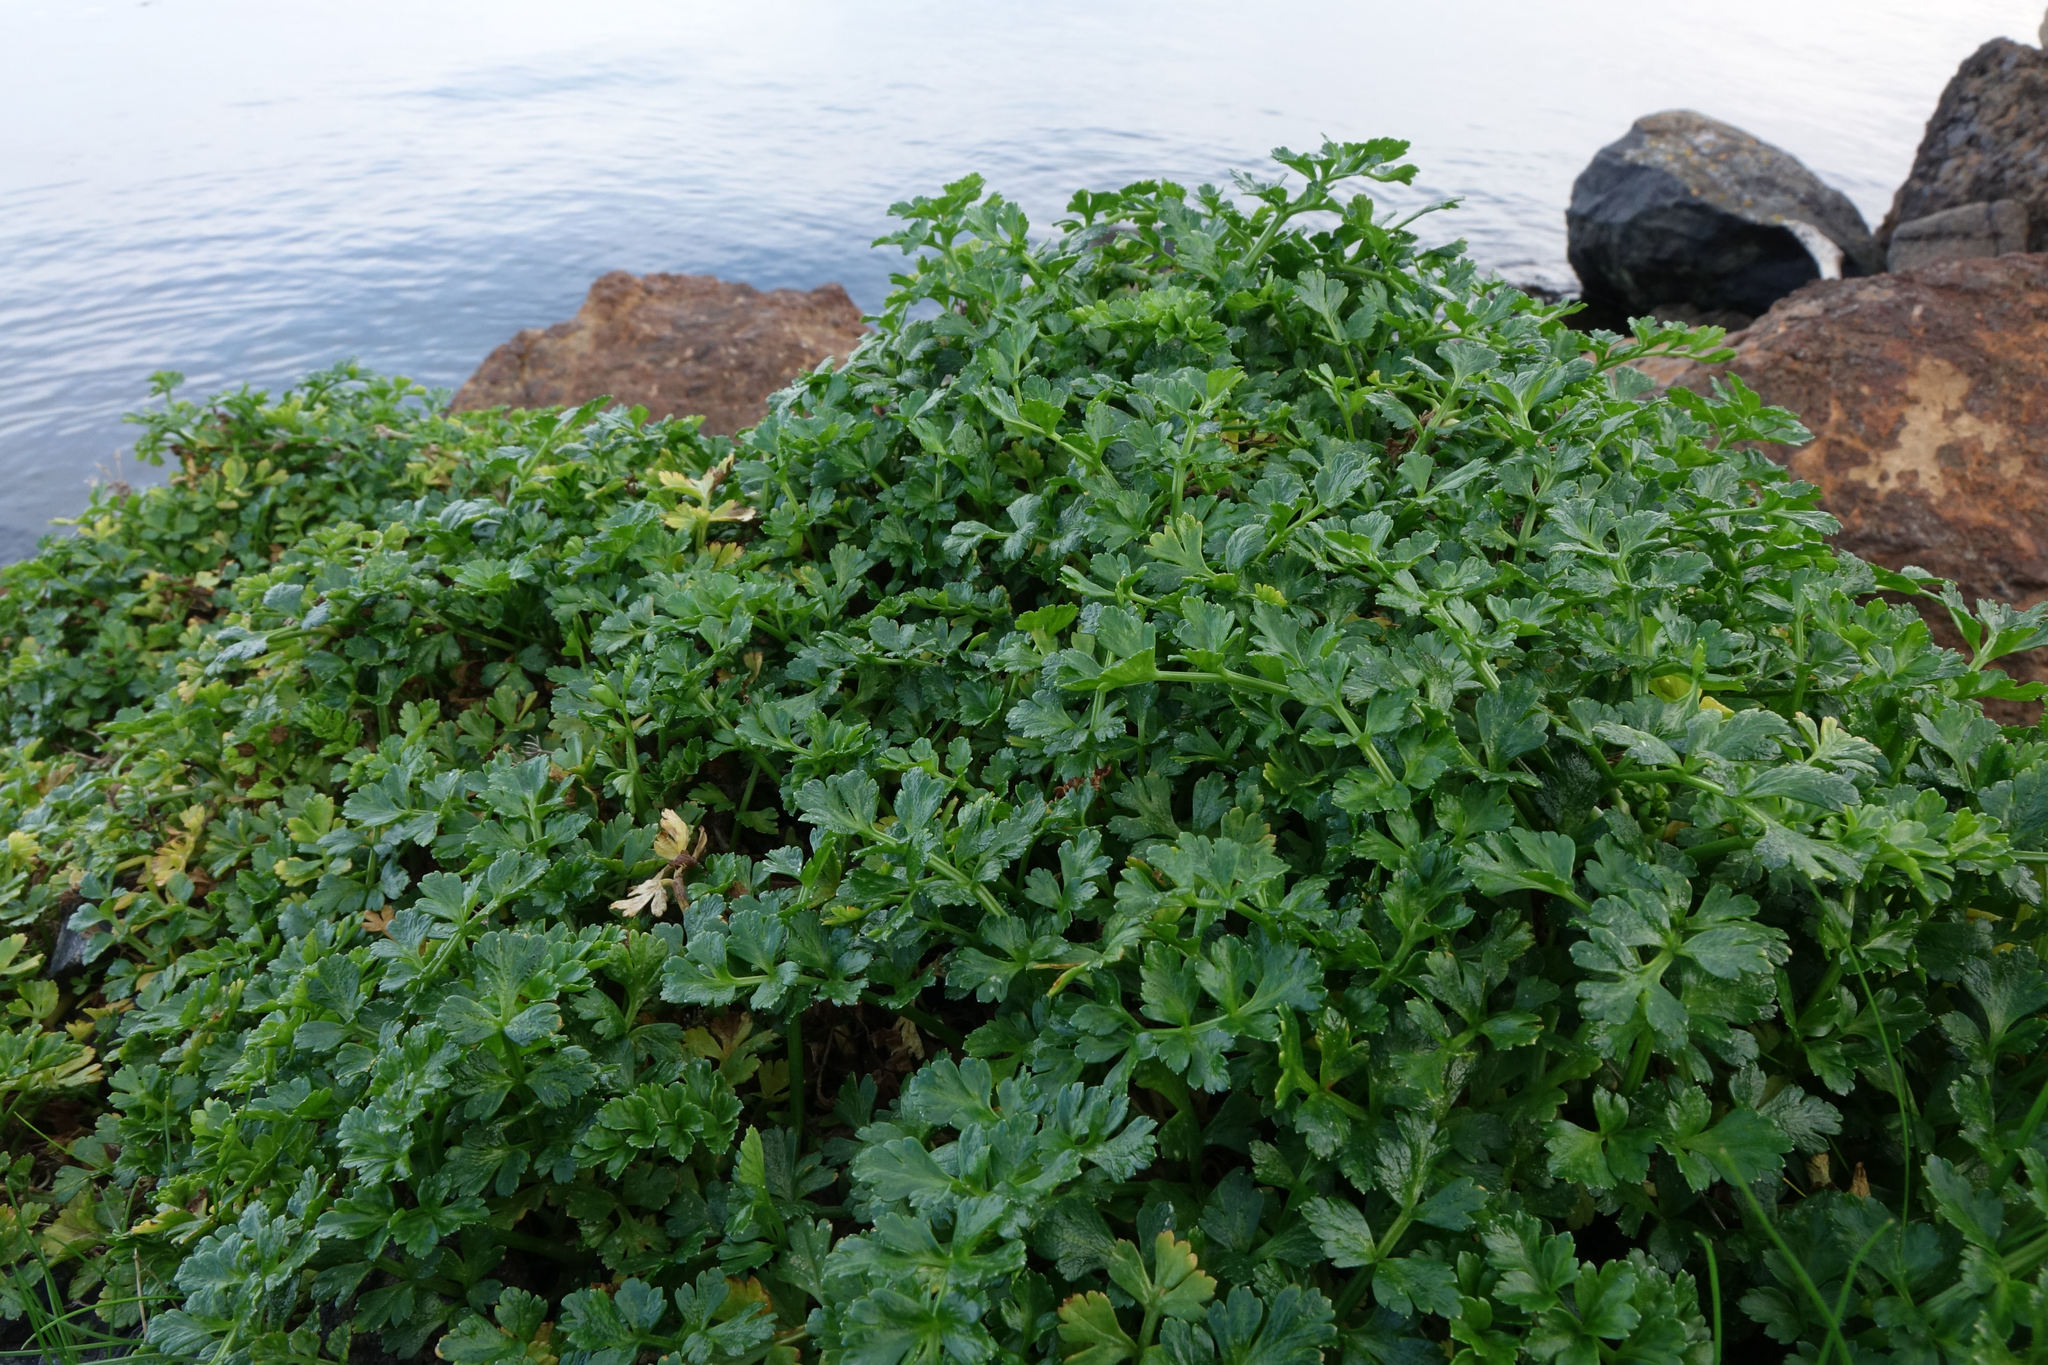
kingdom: Plantae
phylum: Tracheophyta
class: Magnoliopsida
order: Apiales
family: Apiaceae
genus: Apium
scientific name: Apium prostratum
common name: Prostrate marshwort
